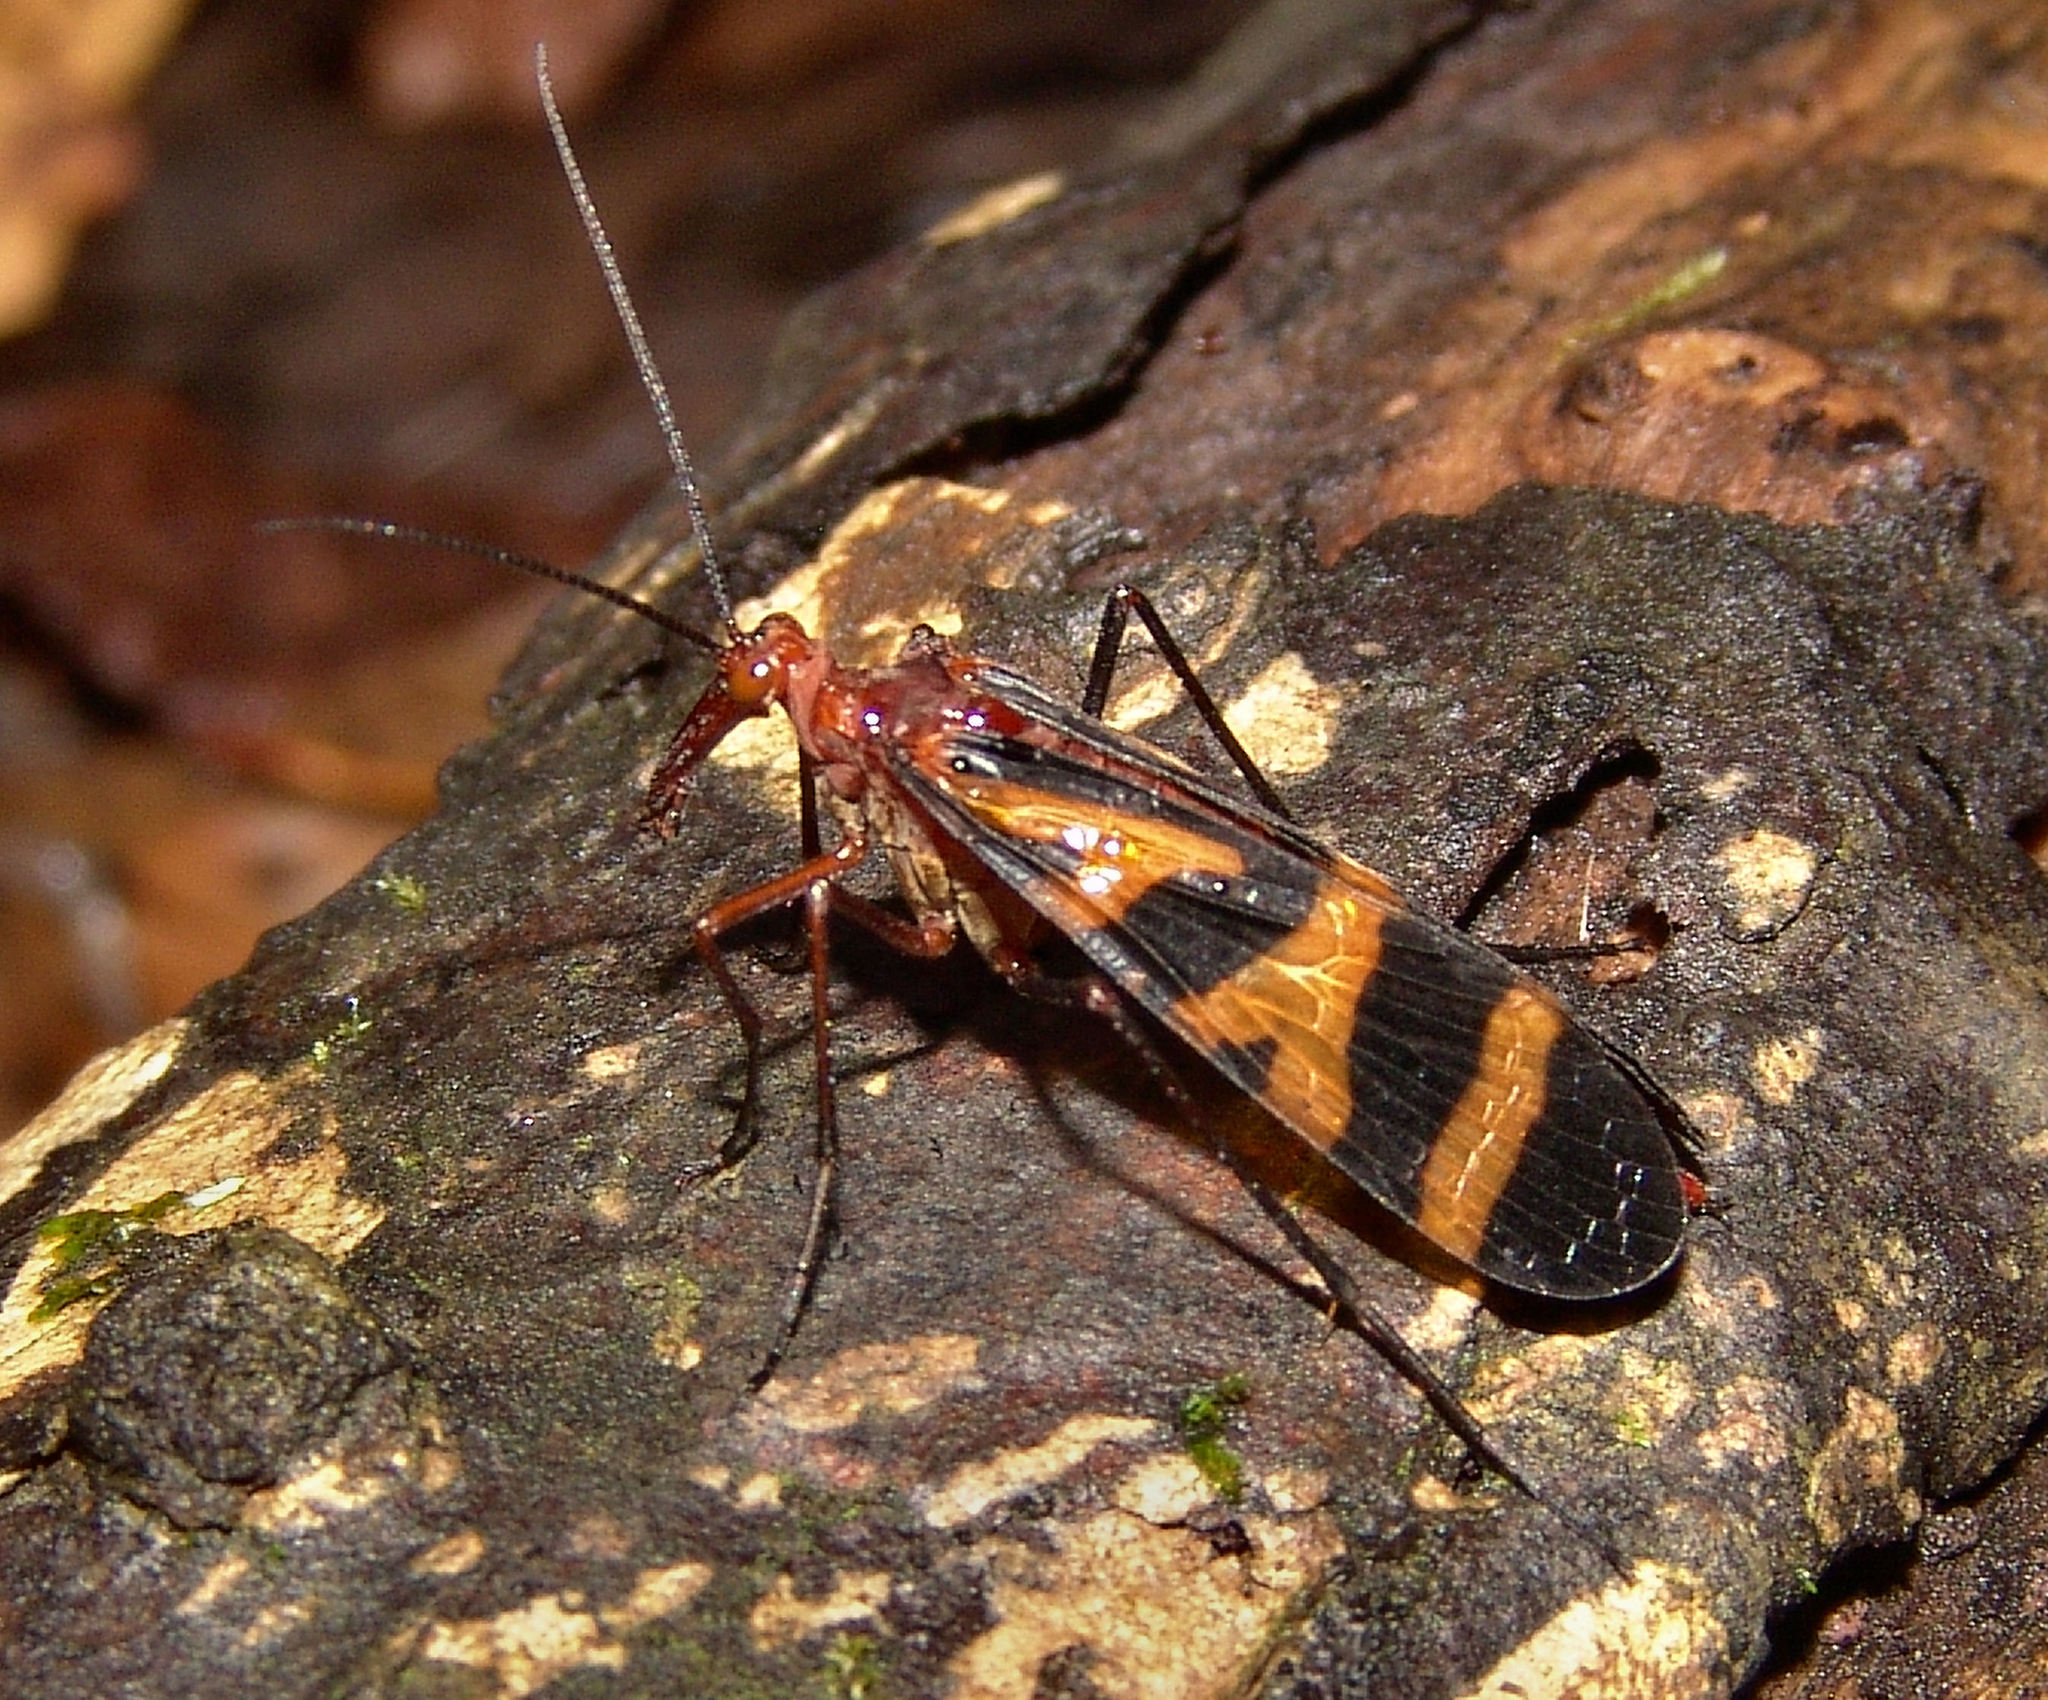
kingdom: Animalia
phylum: Arthropoda
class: Insecta
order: Mecoptera
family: Panorpidae
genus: Panorpa
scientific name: Panorpa nuptialis
